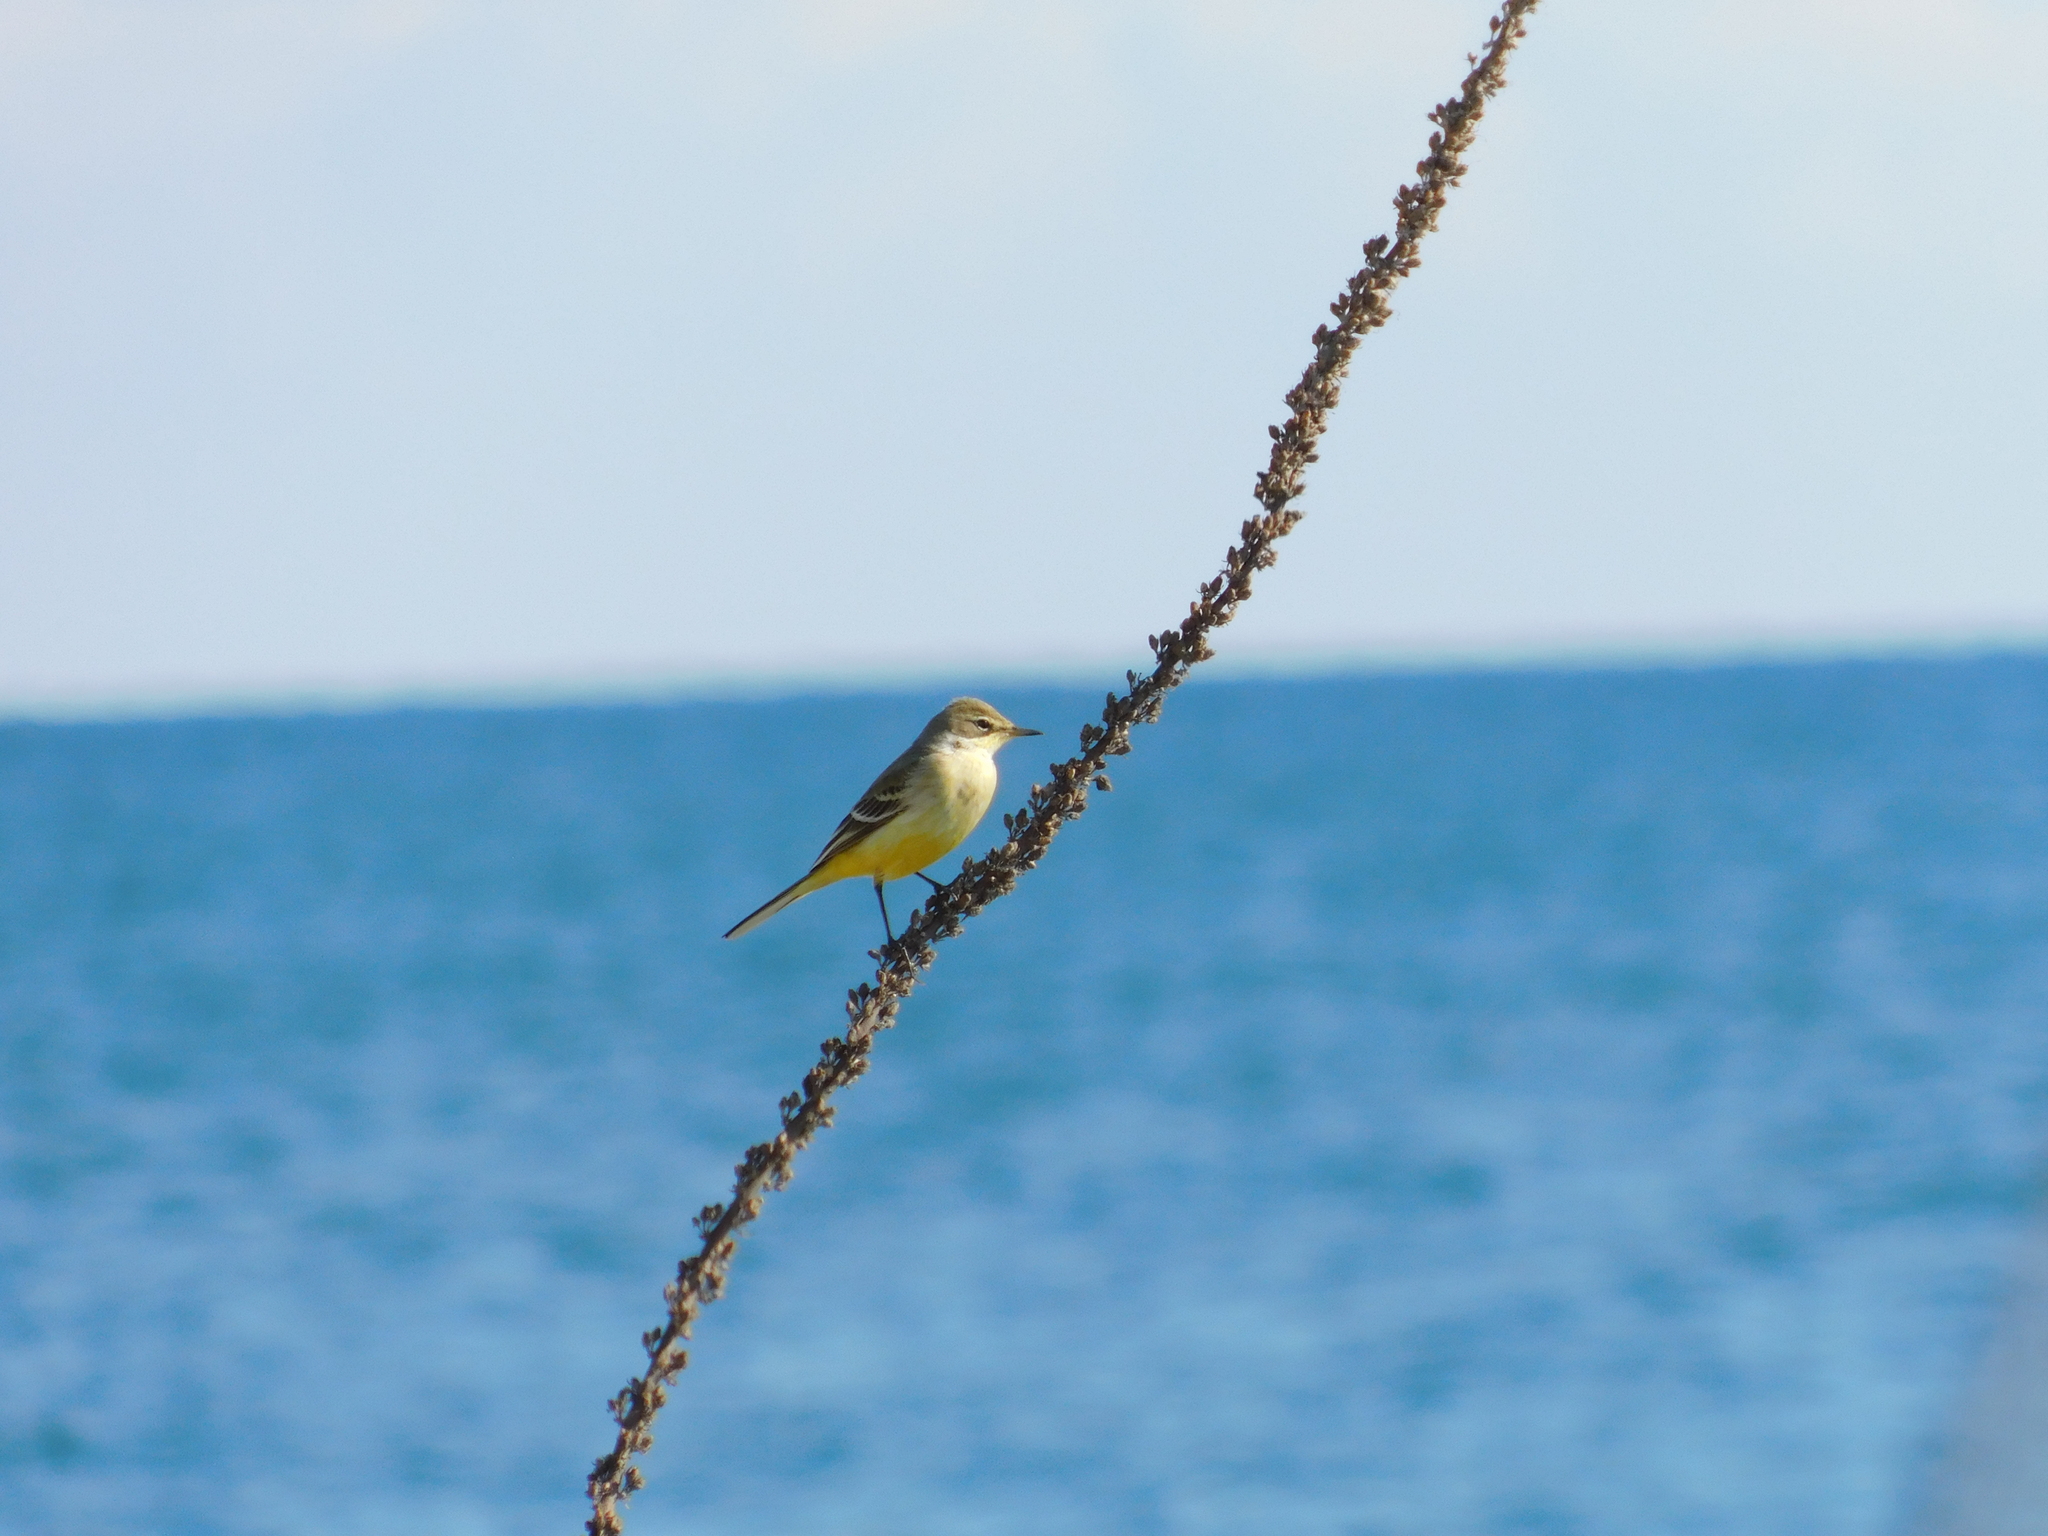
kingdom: Animalia
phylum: Chordata
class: Aves
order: Passeriformes
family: Motacillidae
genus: Motacilla
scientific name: Motacilla flava
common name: Western yellow wagtail
